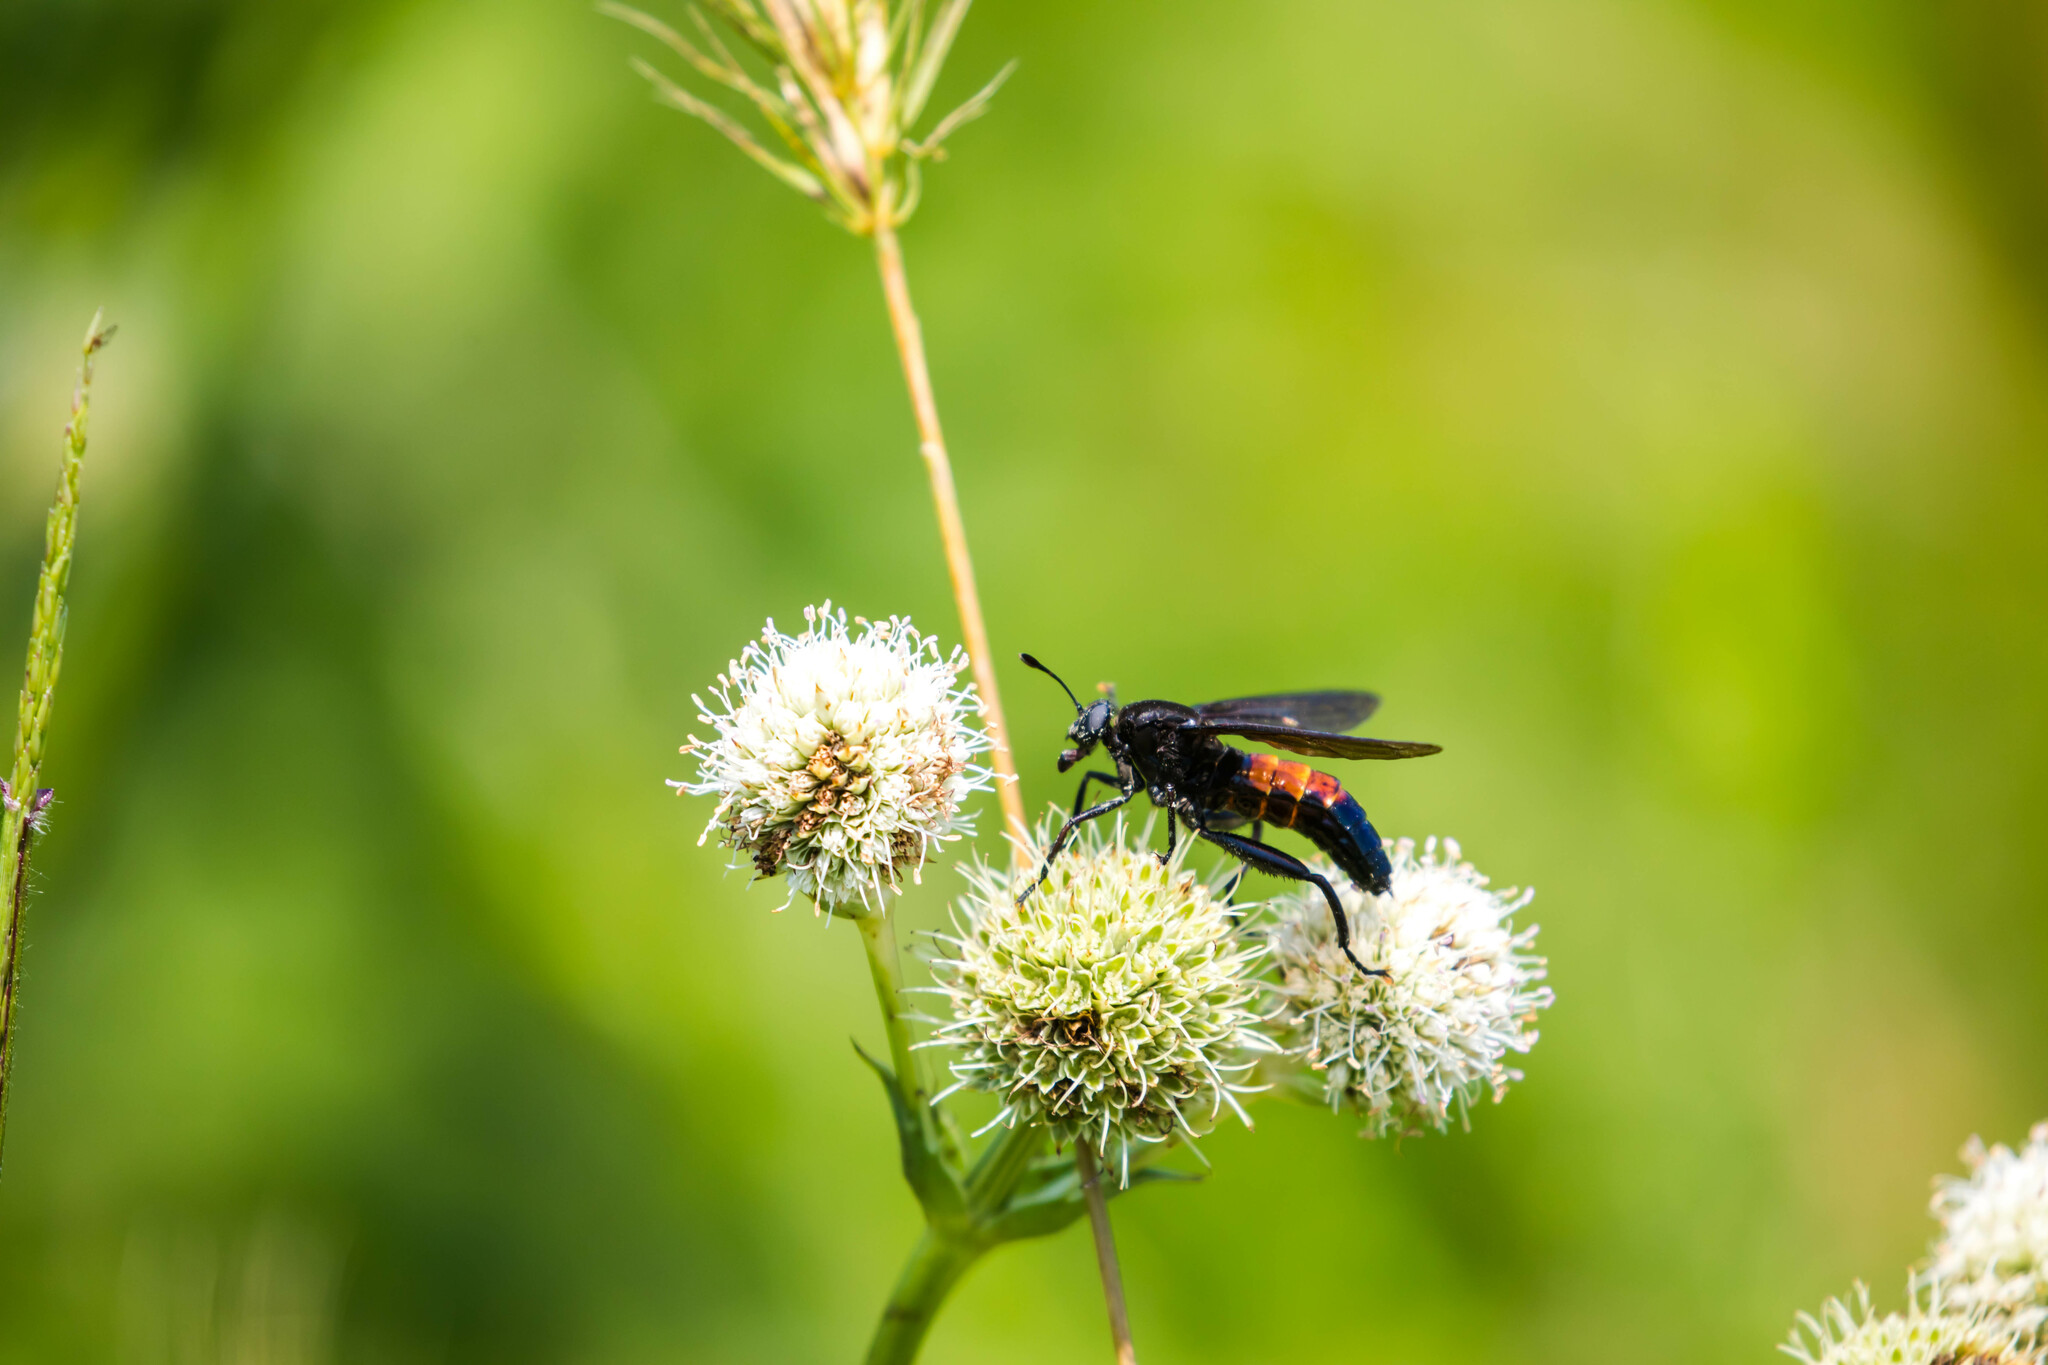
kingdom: Animalia
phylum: Arthropoda
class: Insecta
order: Diptera
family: Mydidae
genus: Mydas
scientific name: Mydas fulvifrons
